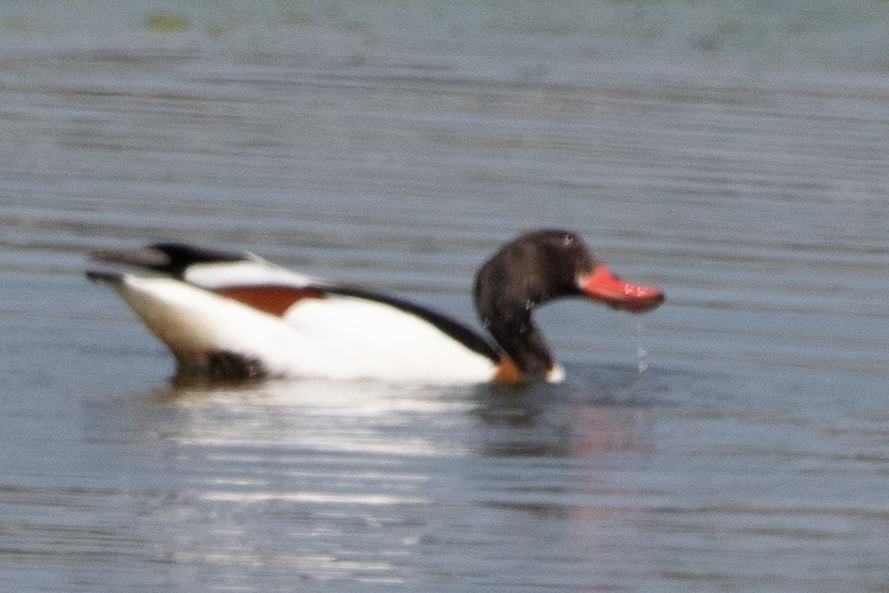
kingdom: Animalia
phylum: Chordata
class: Aves
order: Anseriformes
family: Anatidae
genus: Tadorna
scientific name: Tadorna tadorna
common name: Common shelduck
